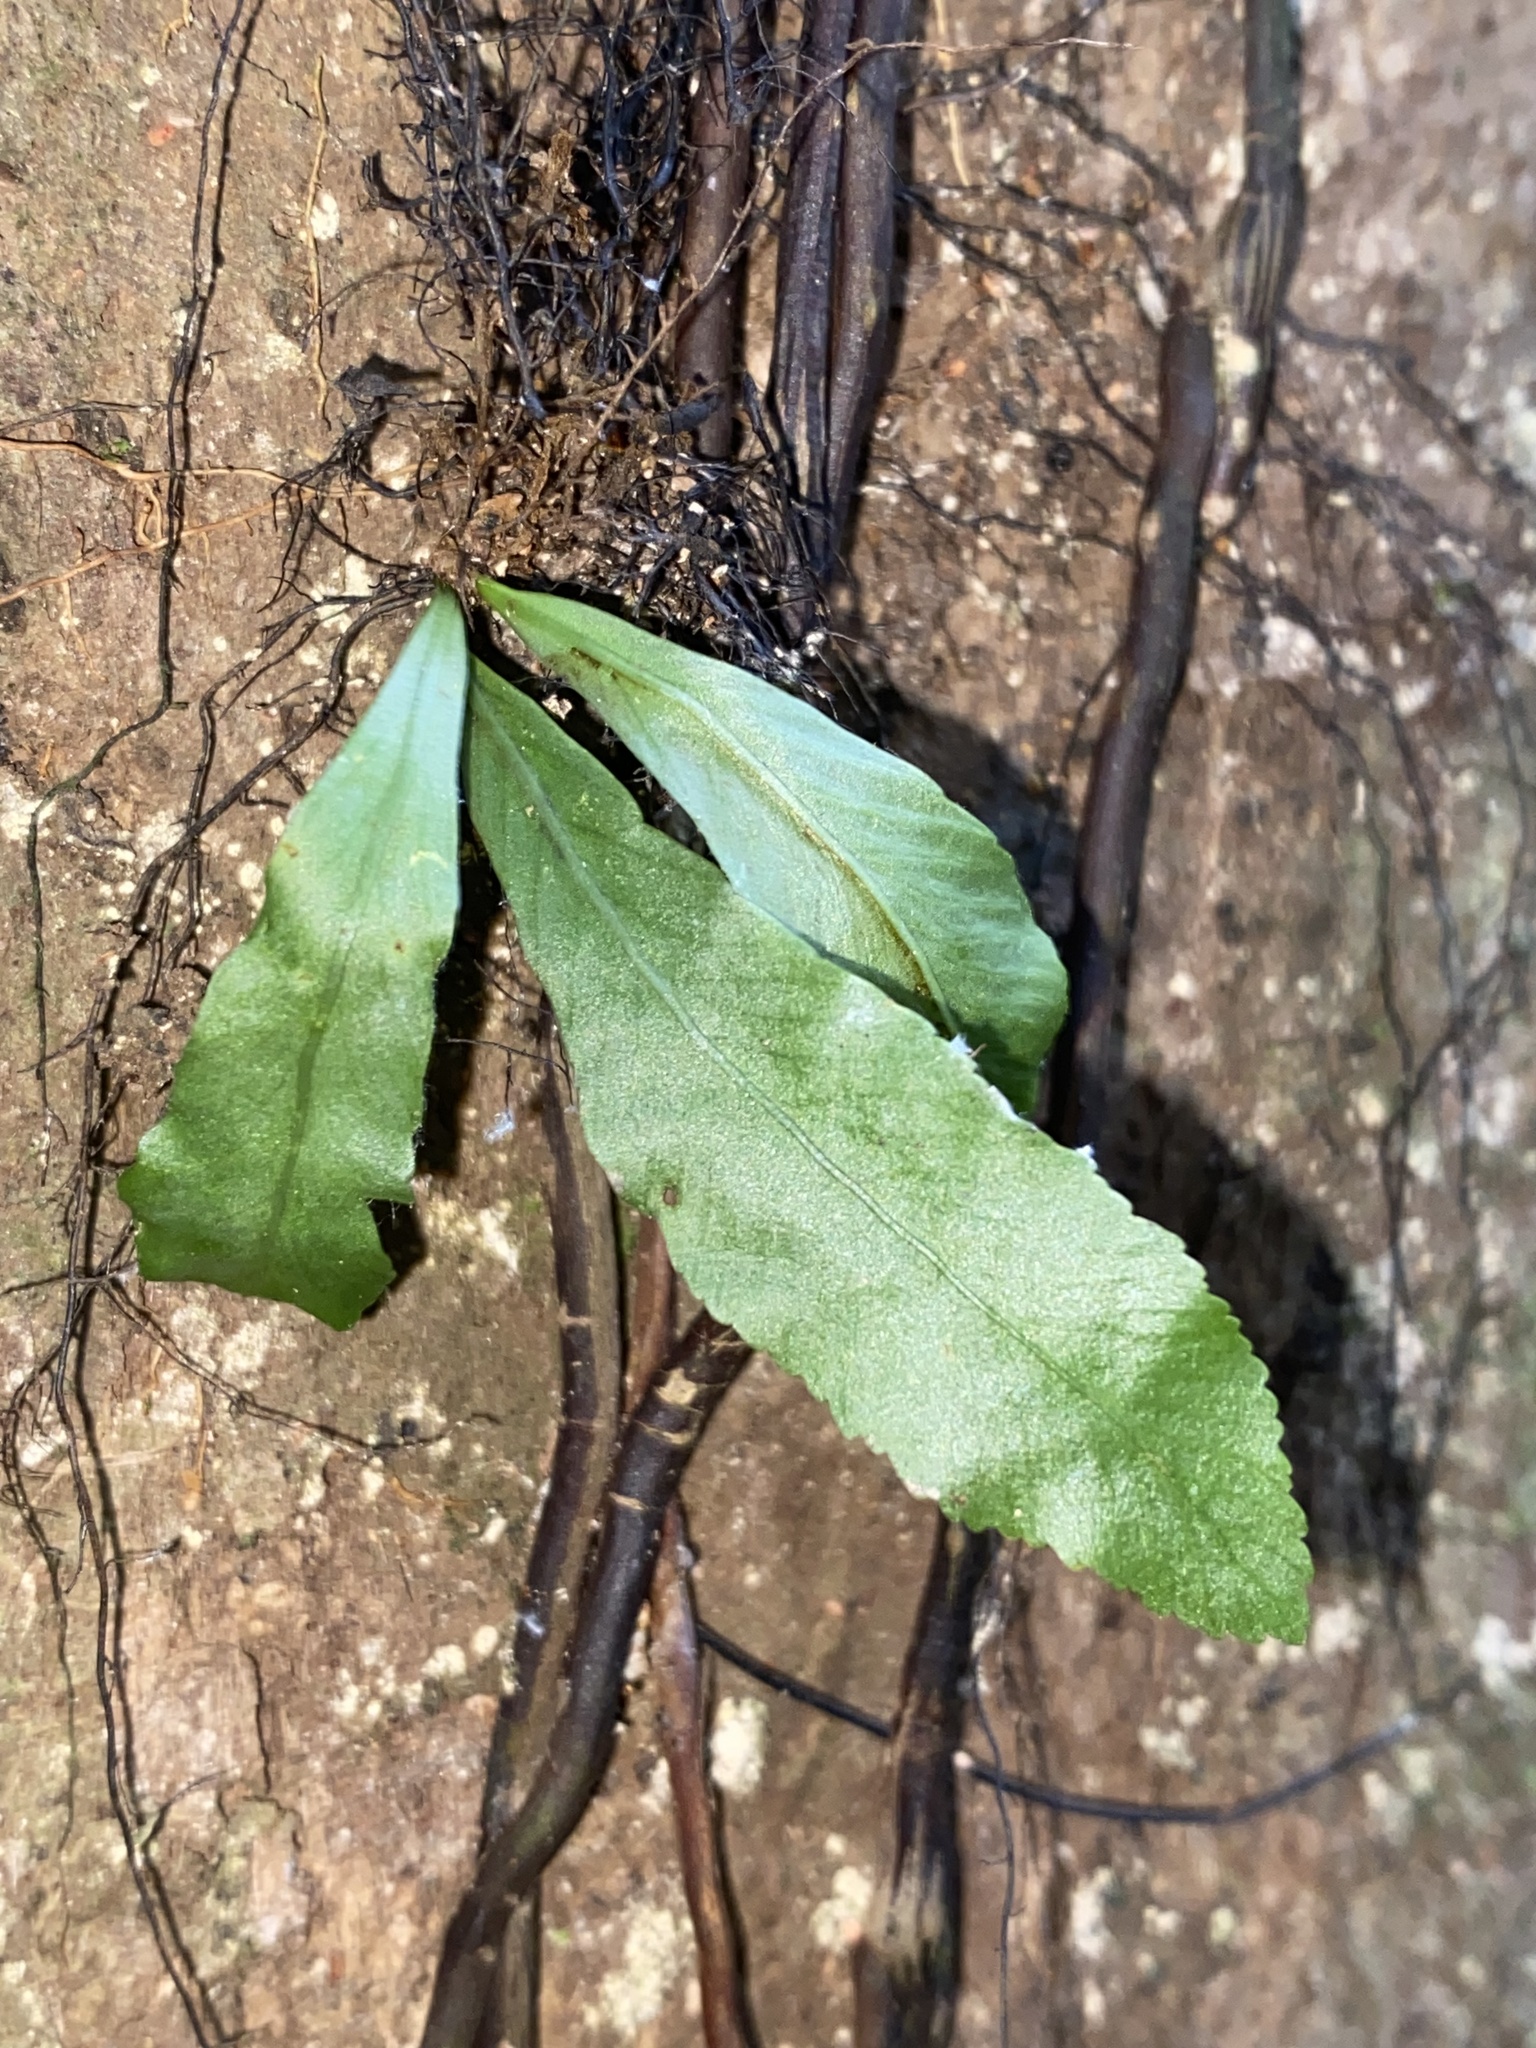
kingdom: Plantae
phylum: Tracheophyta
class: Polypodiopsida
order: Polypodiales
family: Aspleniaceae
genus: Asplenium
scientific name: Asplenium serratum
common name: Wild birdnest fern
